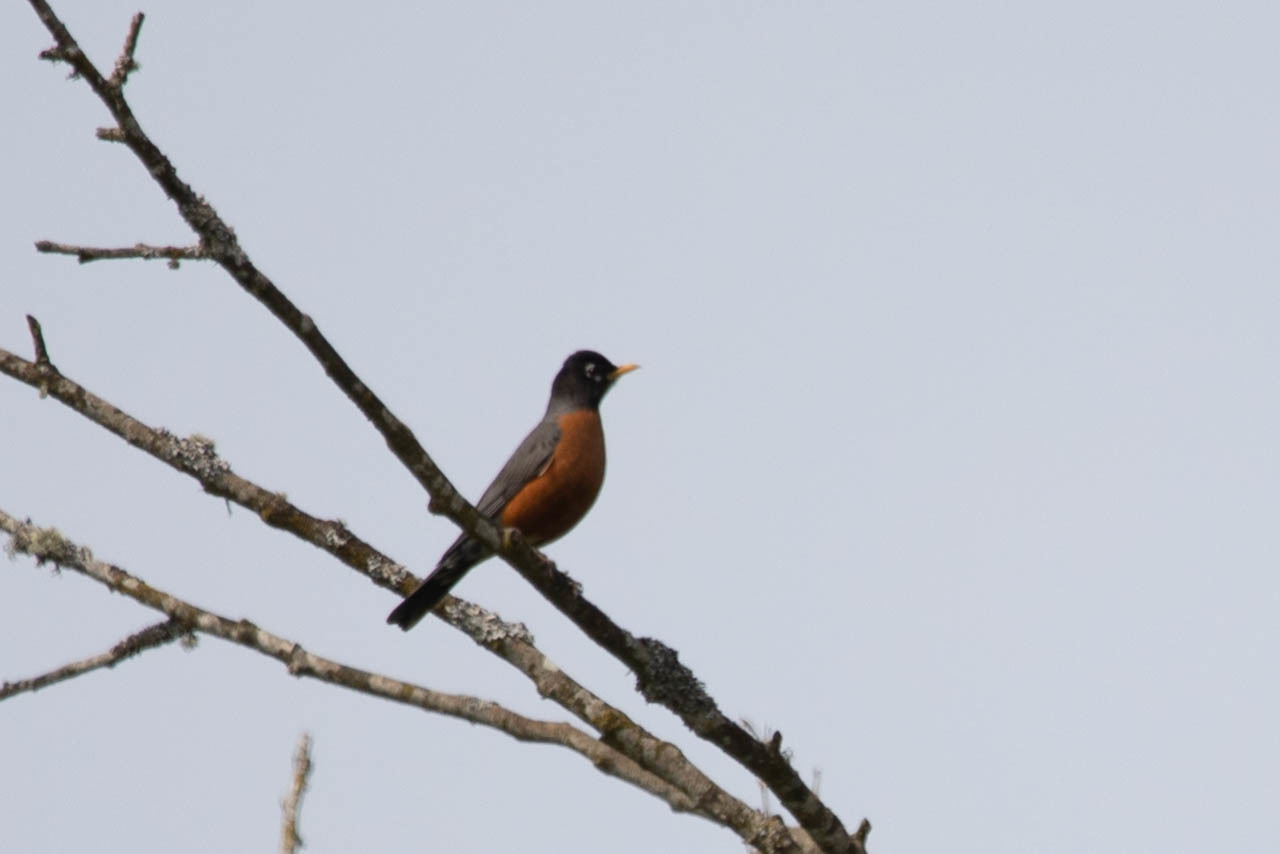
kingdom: Animalia
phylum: Chordata
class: Aves
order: Passeriformes
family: Turdidae
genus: Turdus
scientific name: Turdus migratorius
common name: American robin
